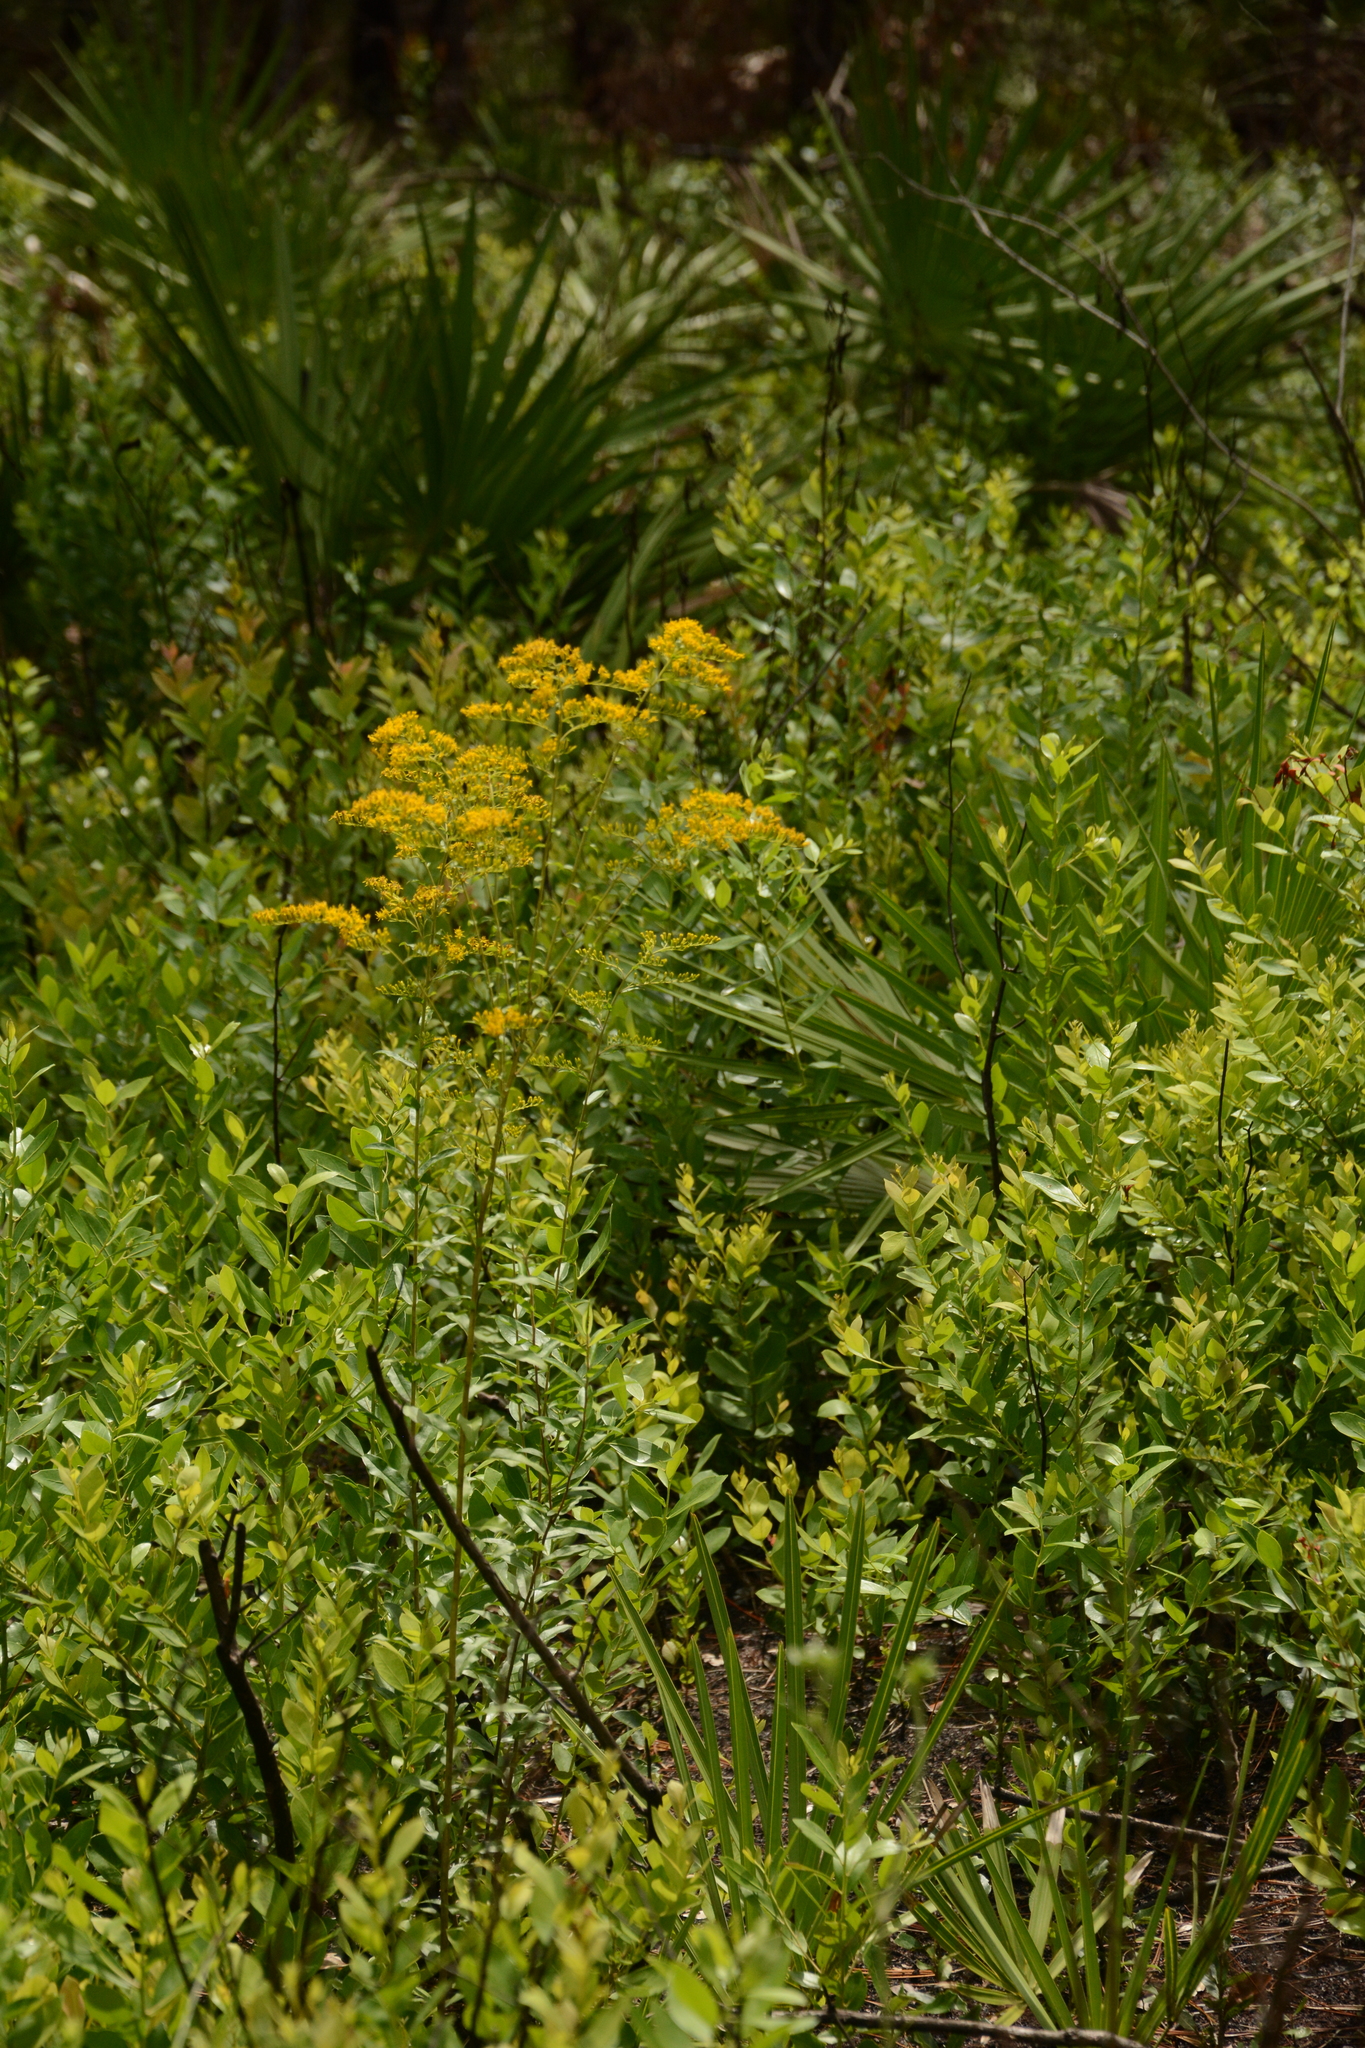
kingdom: Plantae
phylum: Tracheophyta
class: Magnoliopsida
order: Asterales
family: Asteraceae
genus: Solidago
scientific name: Solidago odora
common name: Anise-scented goldenrod
